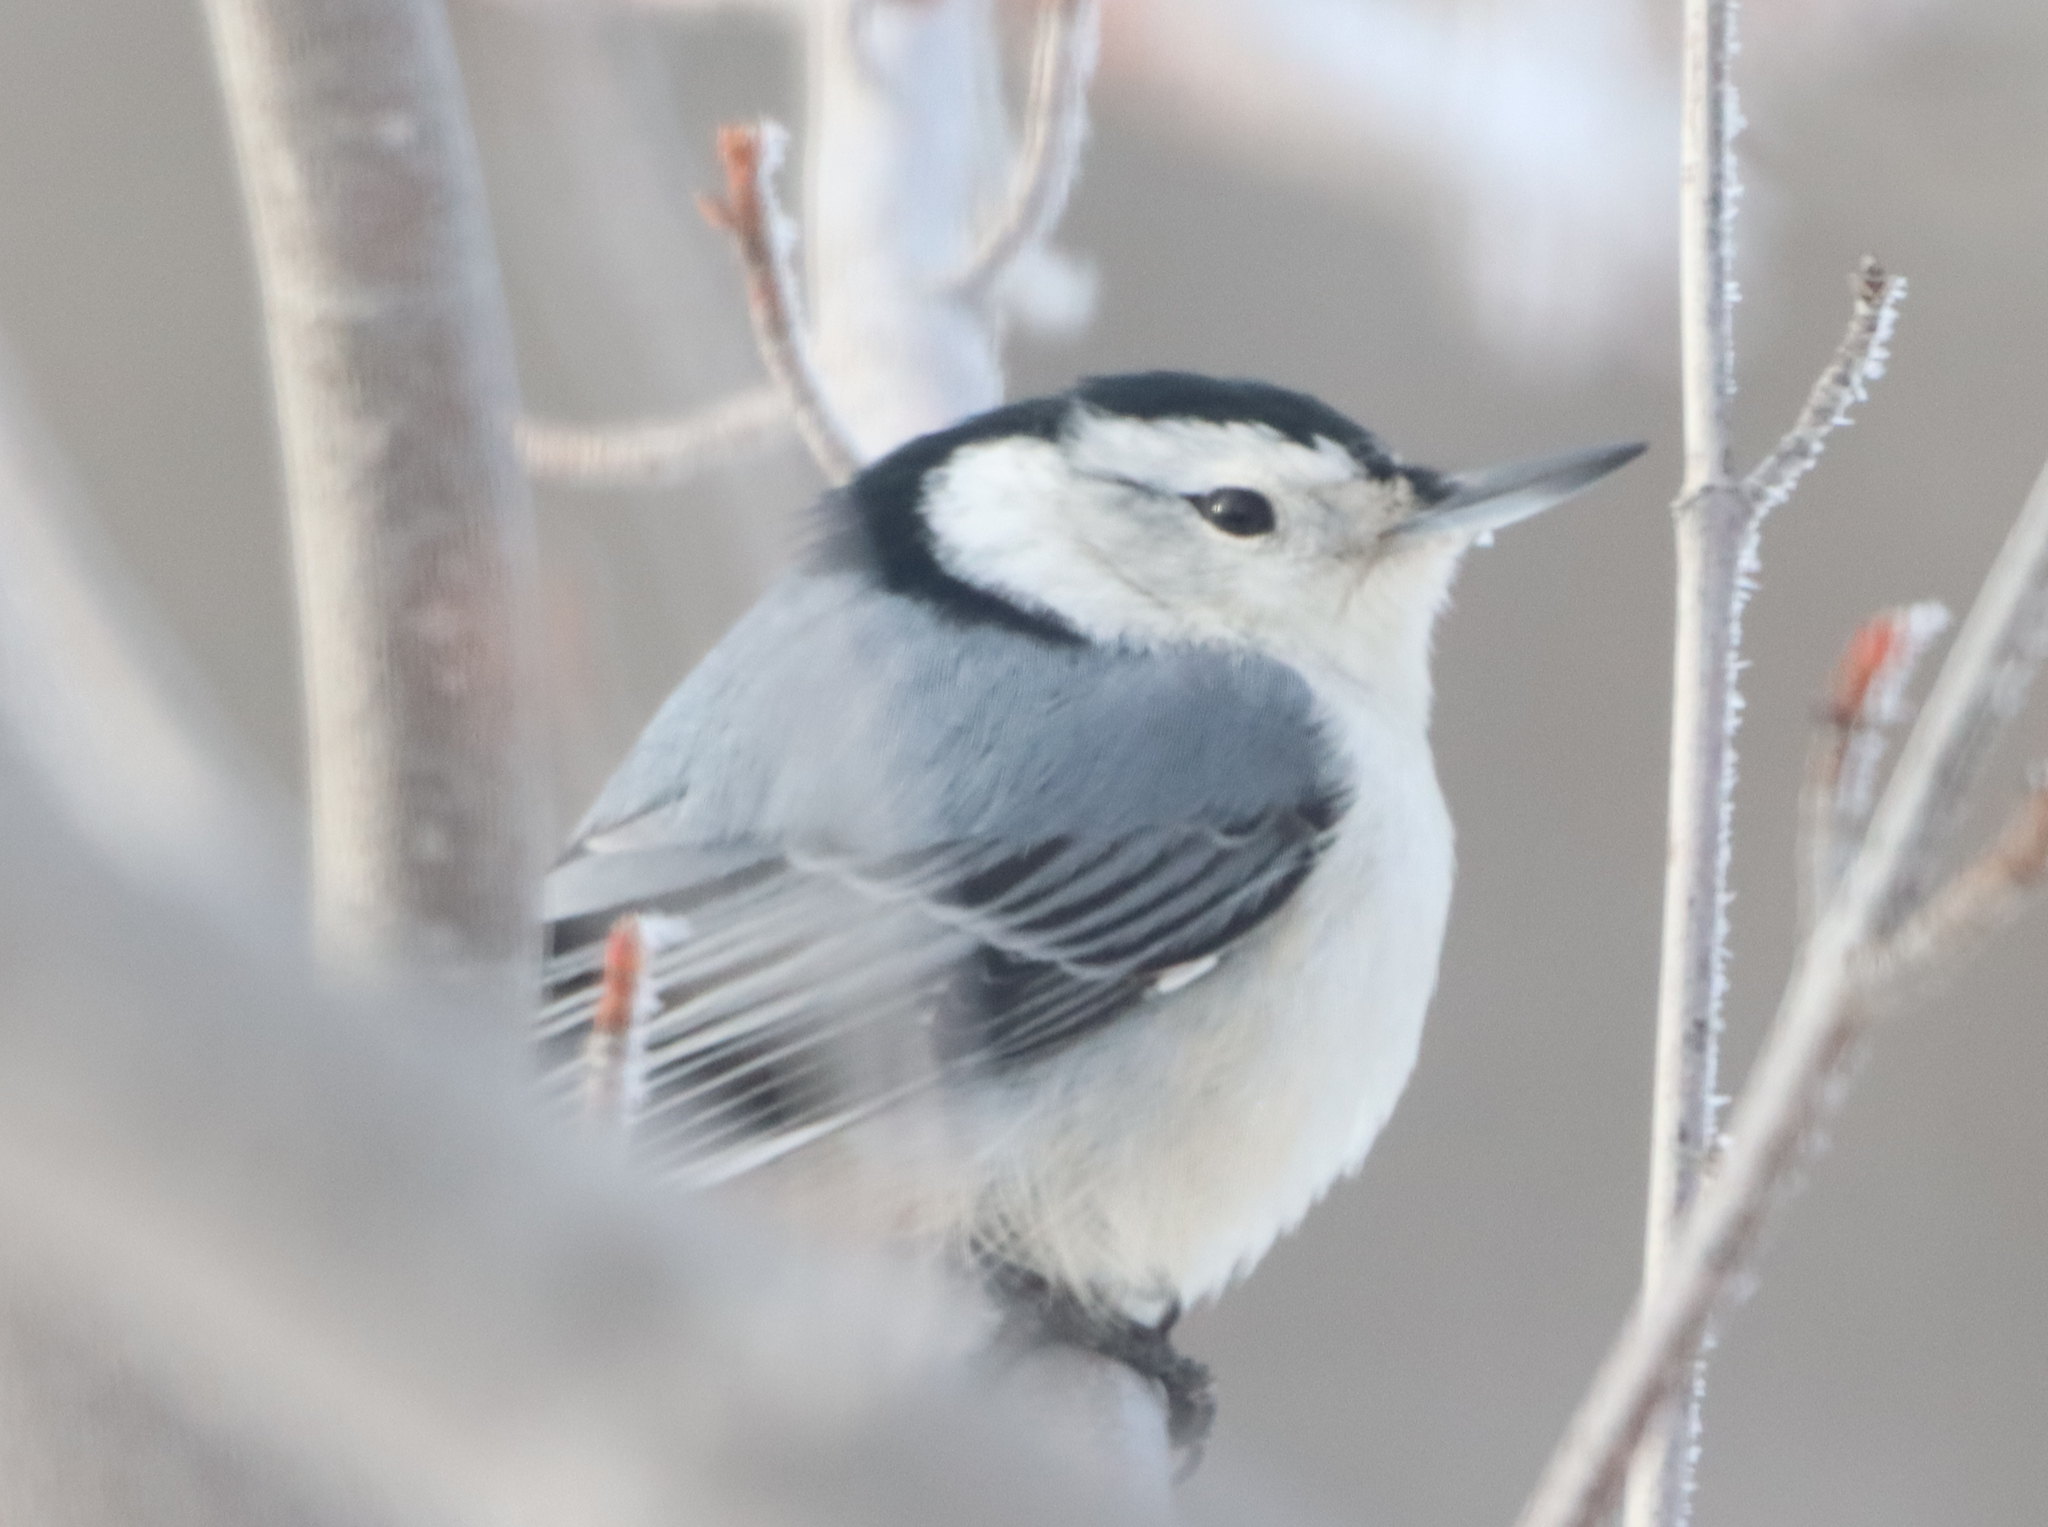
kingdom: Animalia
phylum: Chordata
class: Aves
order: Passeriformes
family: Sittidae
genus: Sitta
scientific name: Sitta carolinensis
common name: White-breasted nuthatch
